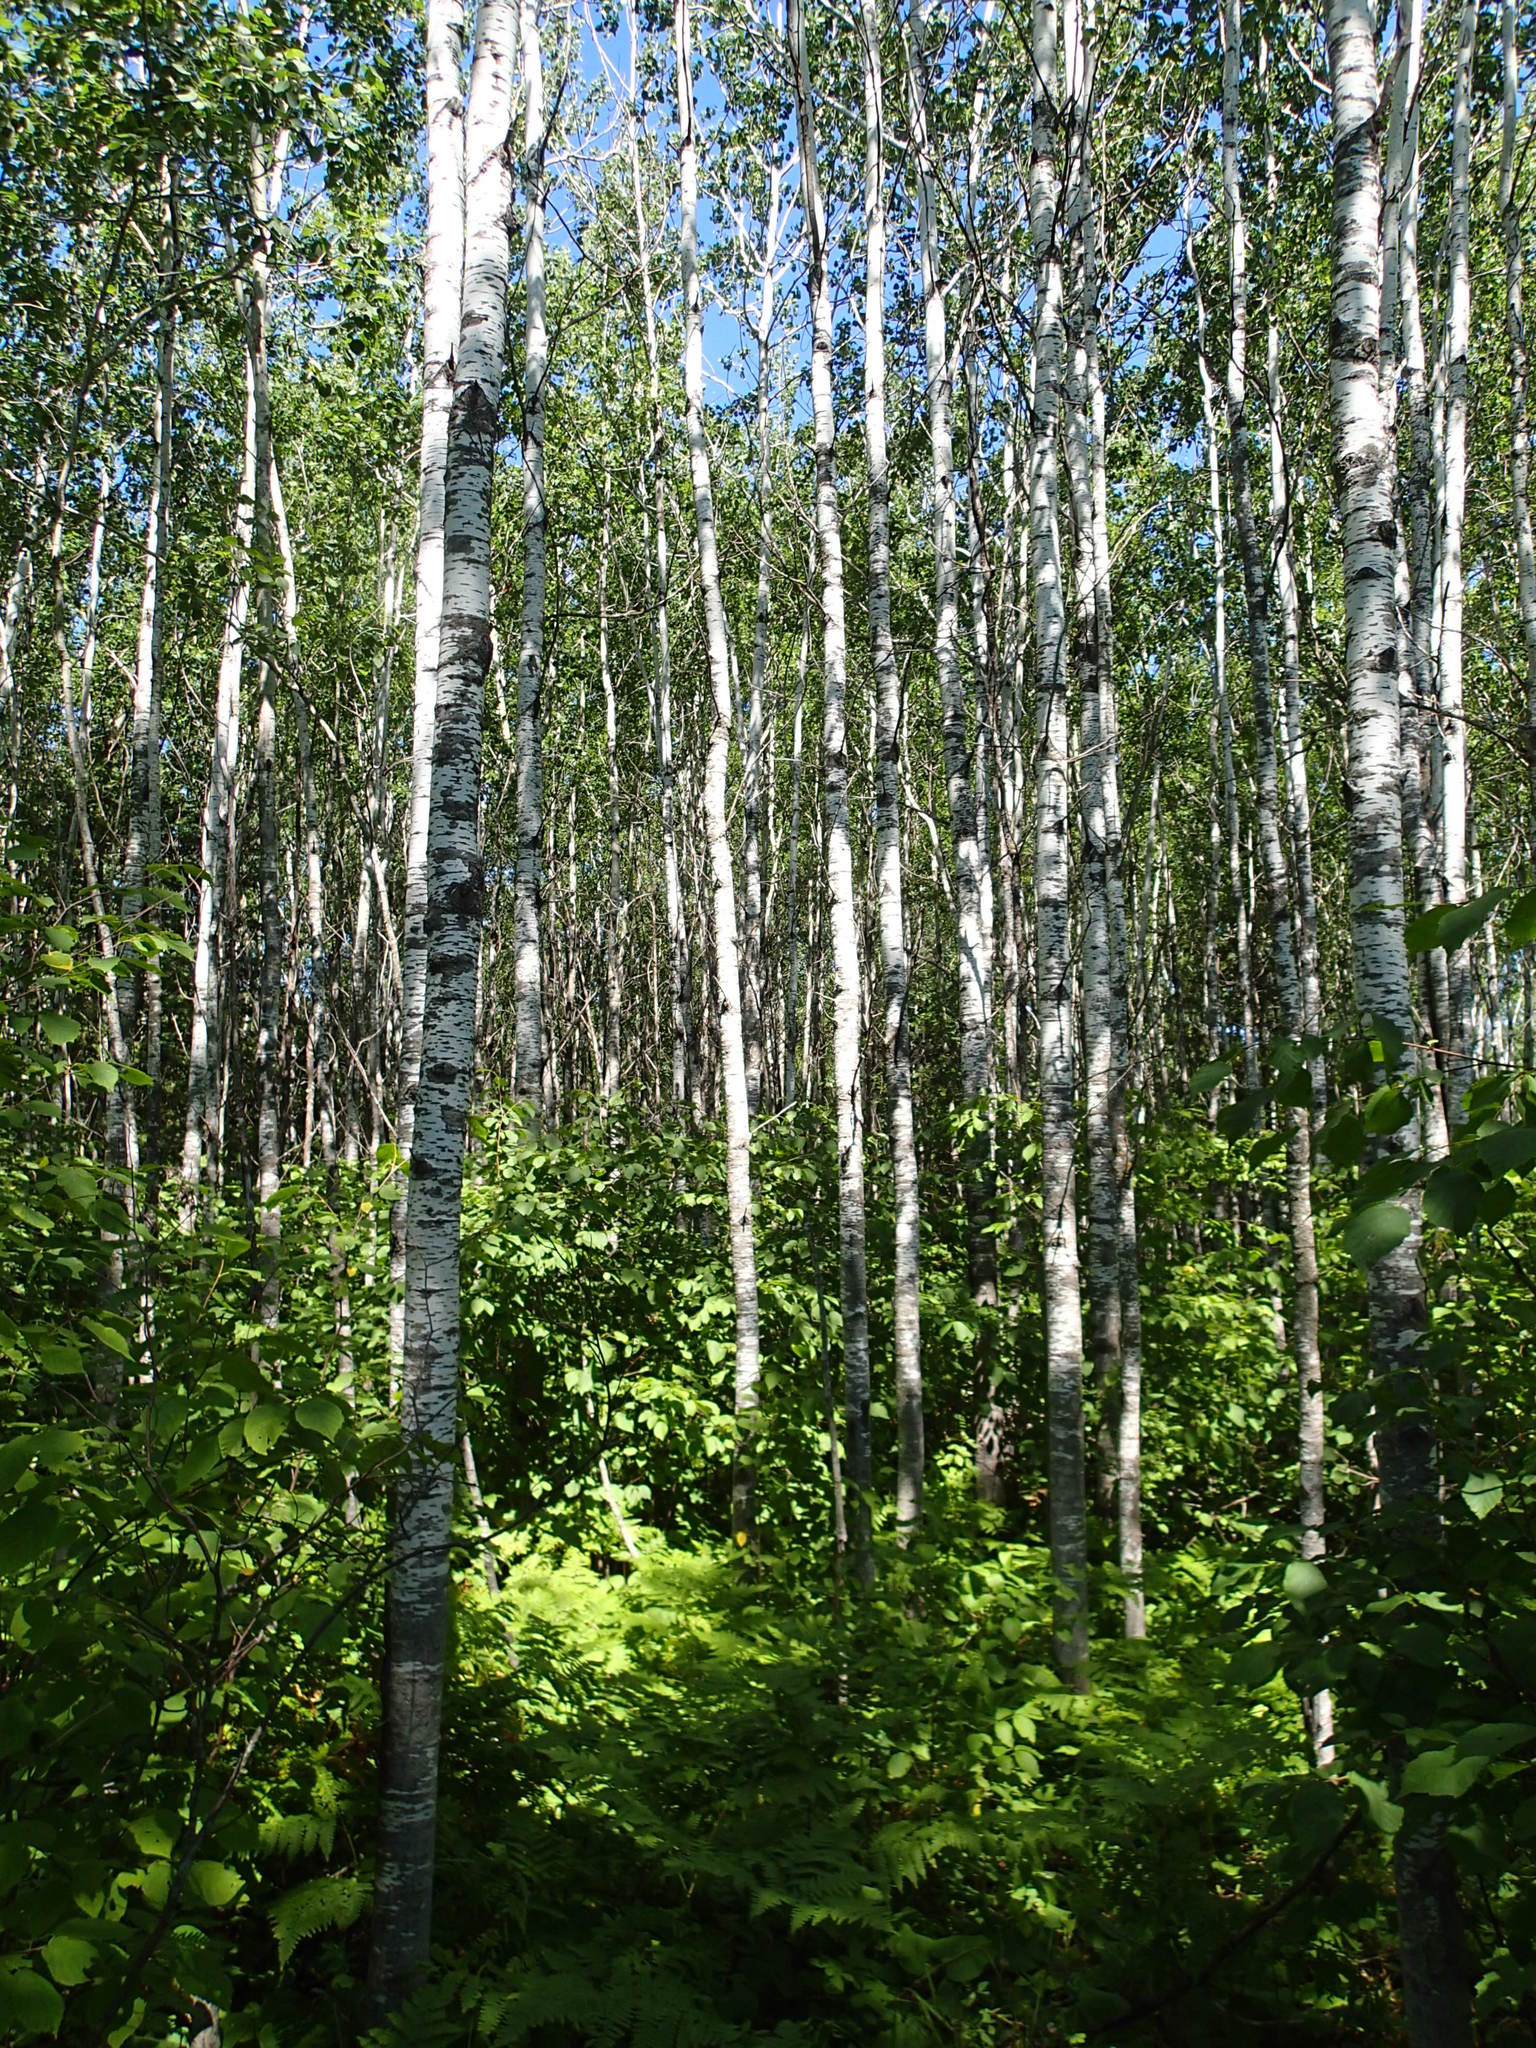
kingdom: Plantae
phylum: Tracheophyta
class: Magnoliopsida
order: Malpighiales
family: Salicaceae
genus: Populus
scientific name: Populus tremuloides
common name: Quaking aspen
